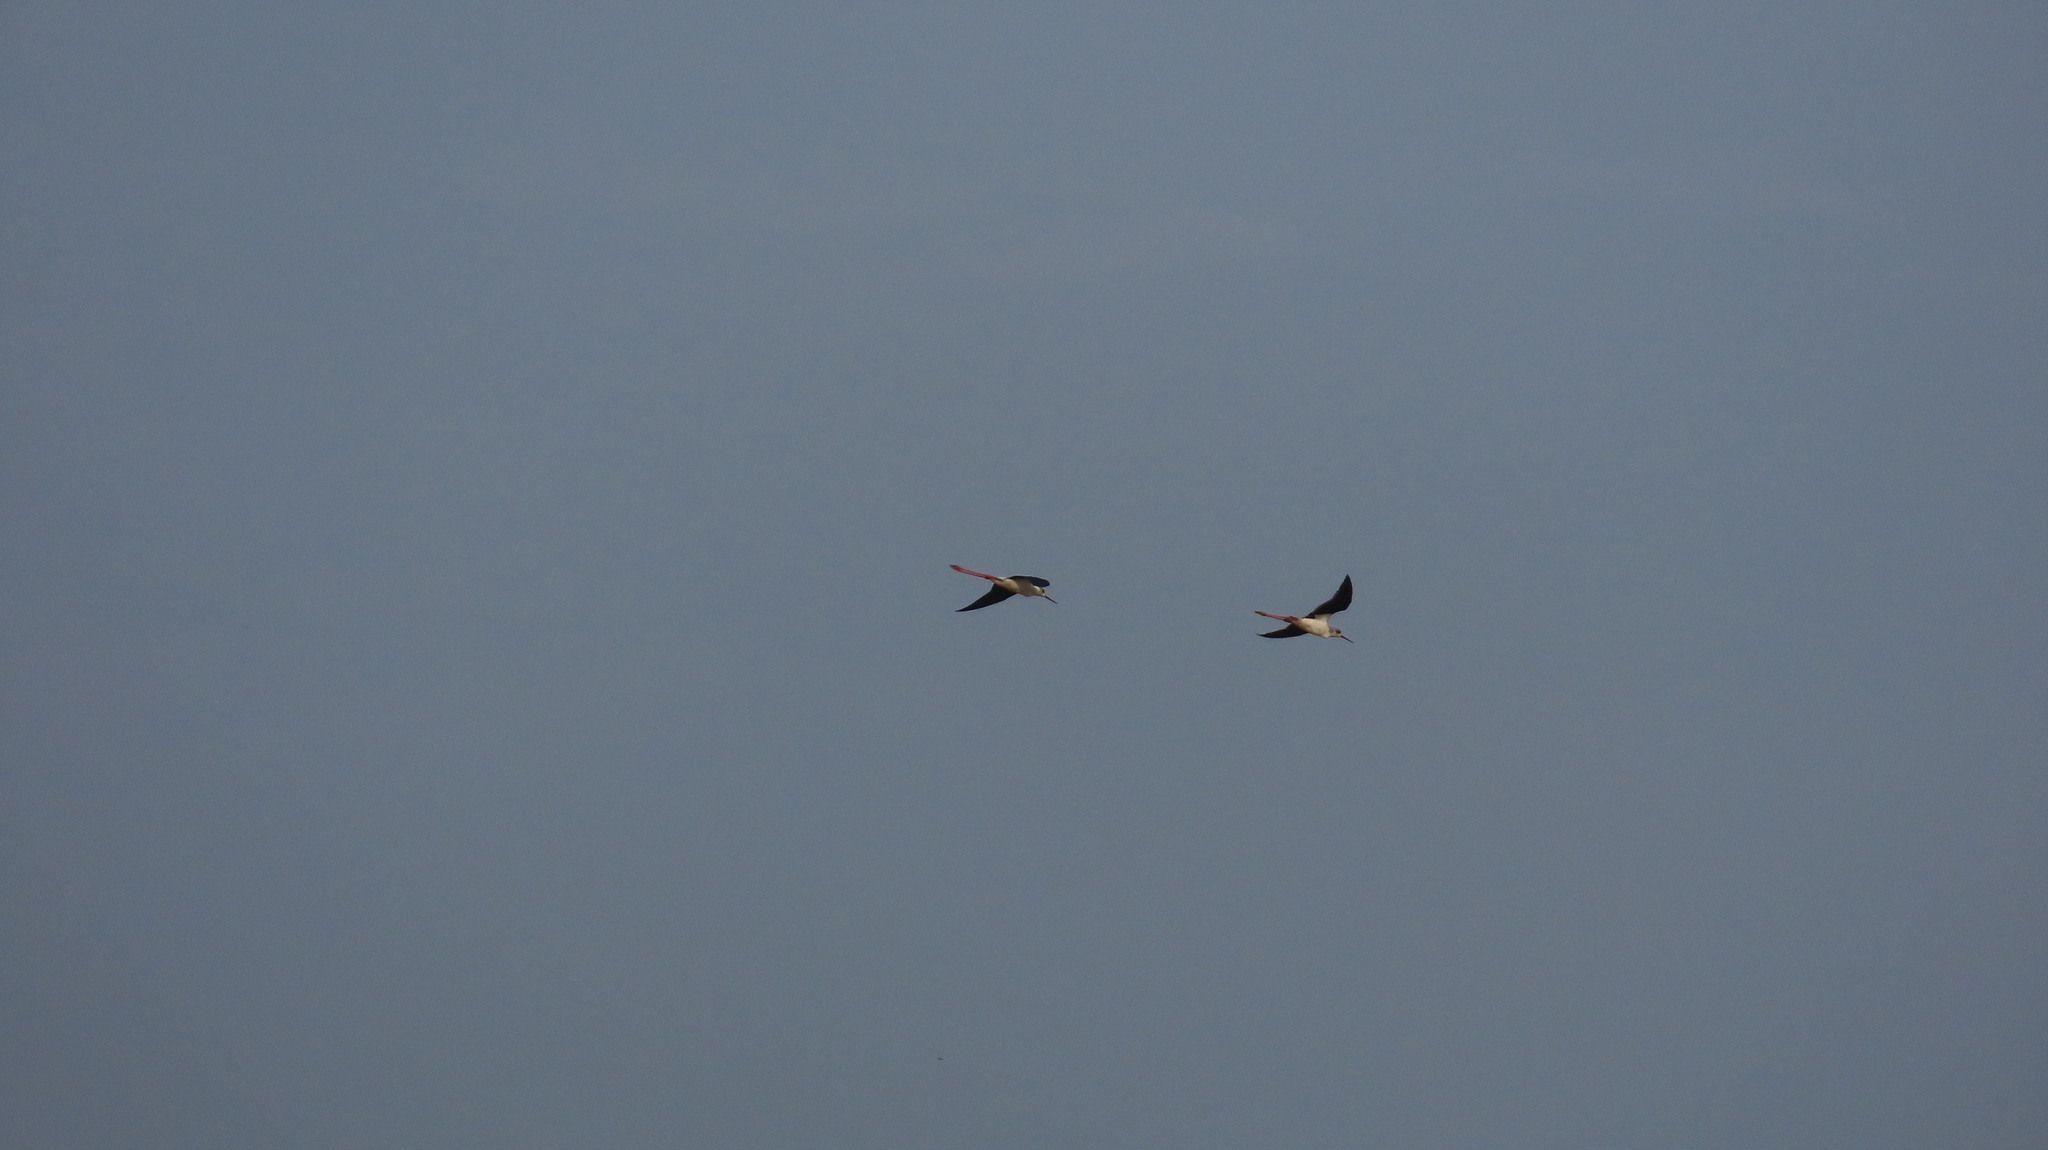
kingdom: Animalia
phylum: Chordata
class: Aves
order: Charadriiformes
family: Recurvirostridae
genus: Himantopus
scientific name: Himantopus himantopus
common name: Black-winged stilt
